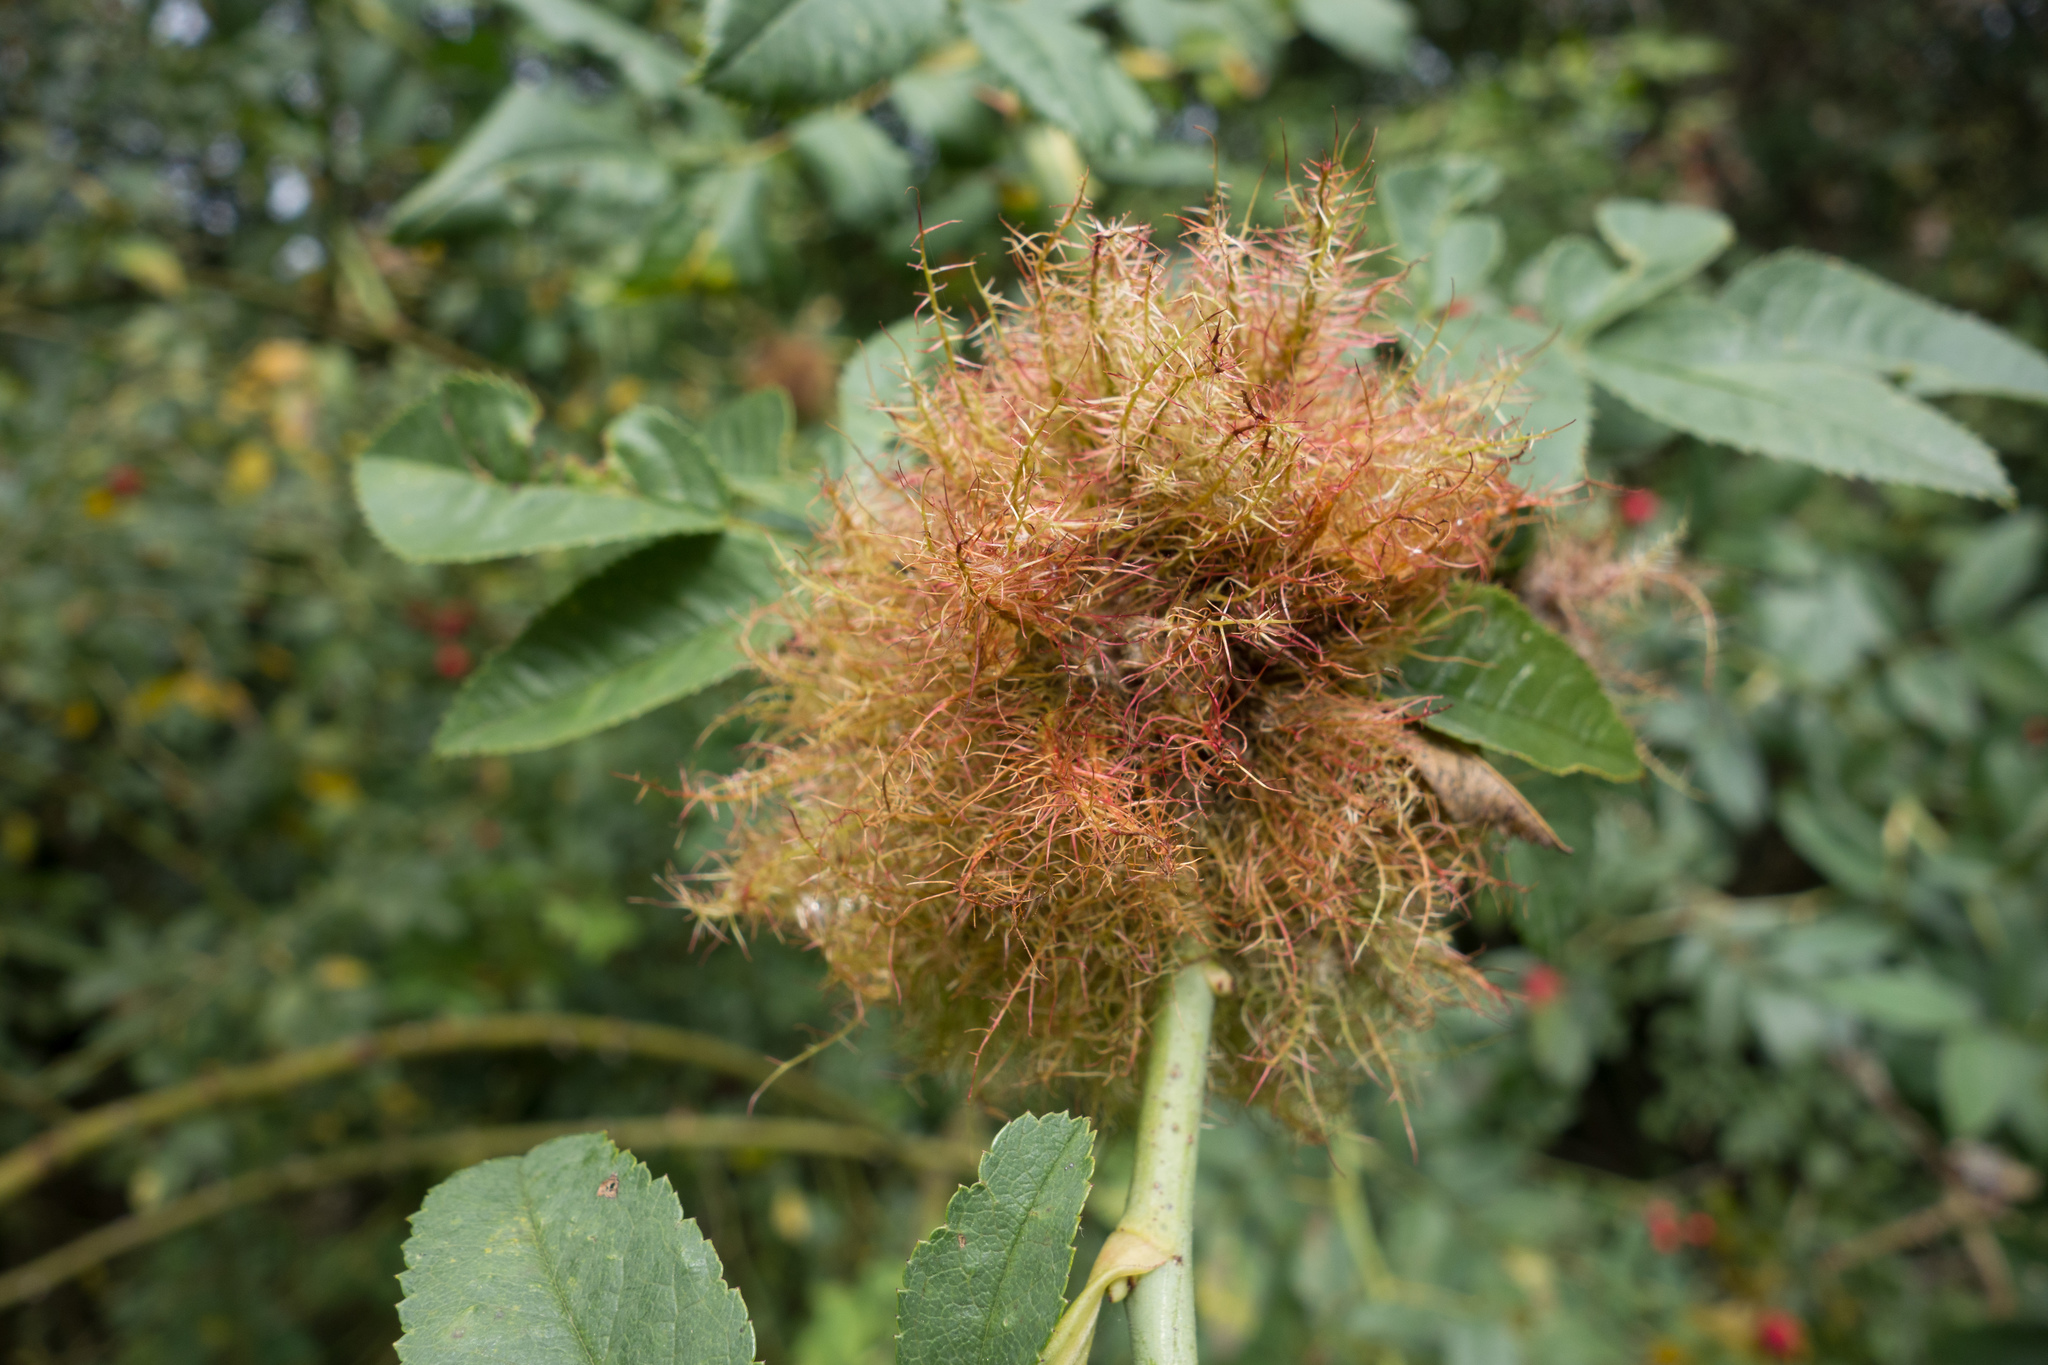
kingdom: Animalia
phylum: Arthropoda
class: Insecta
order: Hymenoptera
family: Cynipidae
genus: Diplolepis
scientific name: Diplolepis rosae
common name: Bedeguar gall
